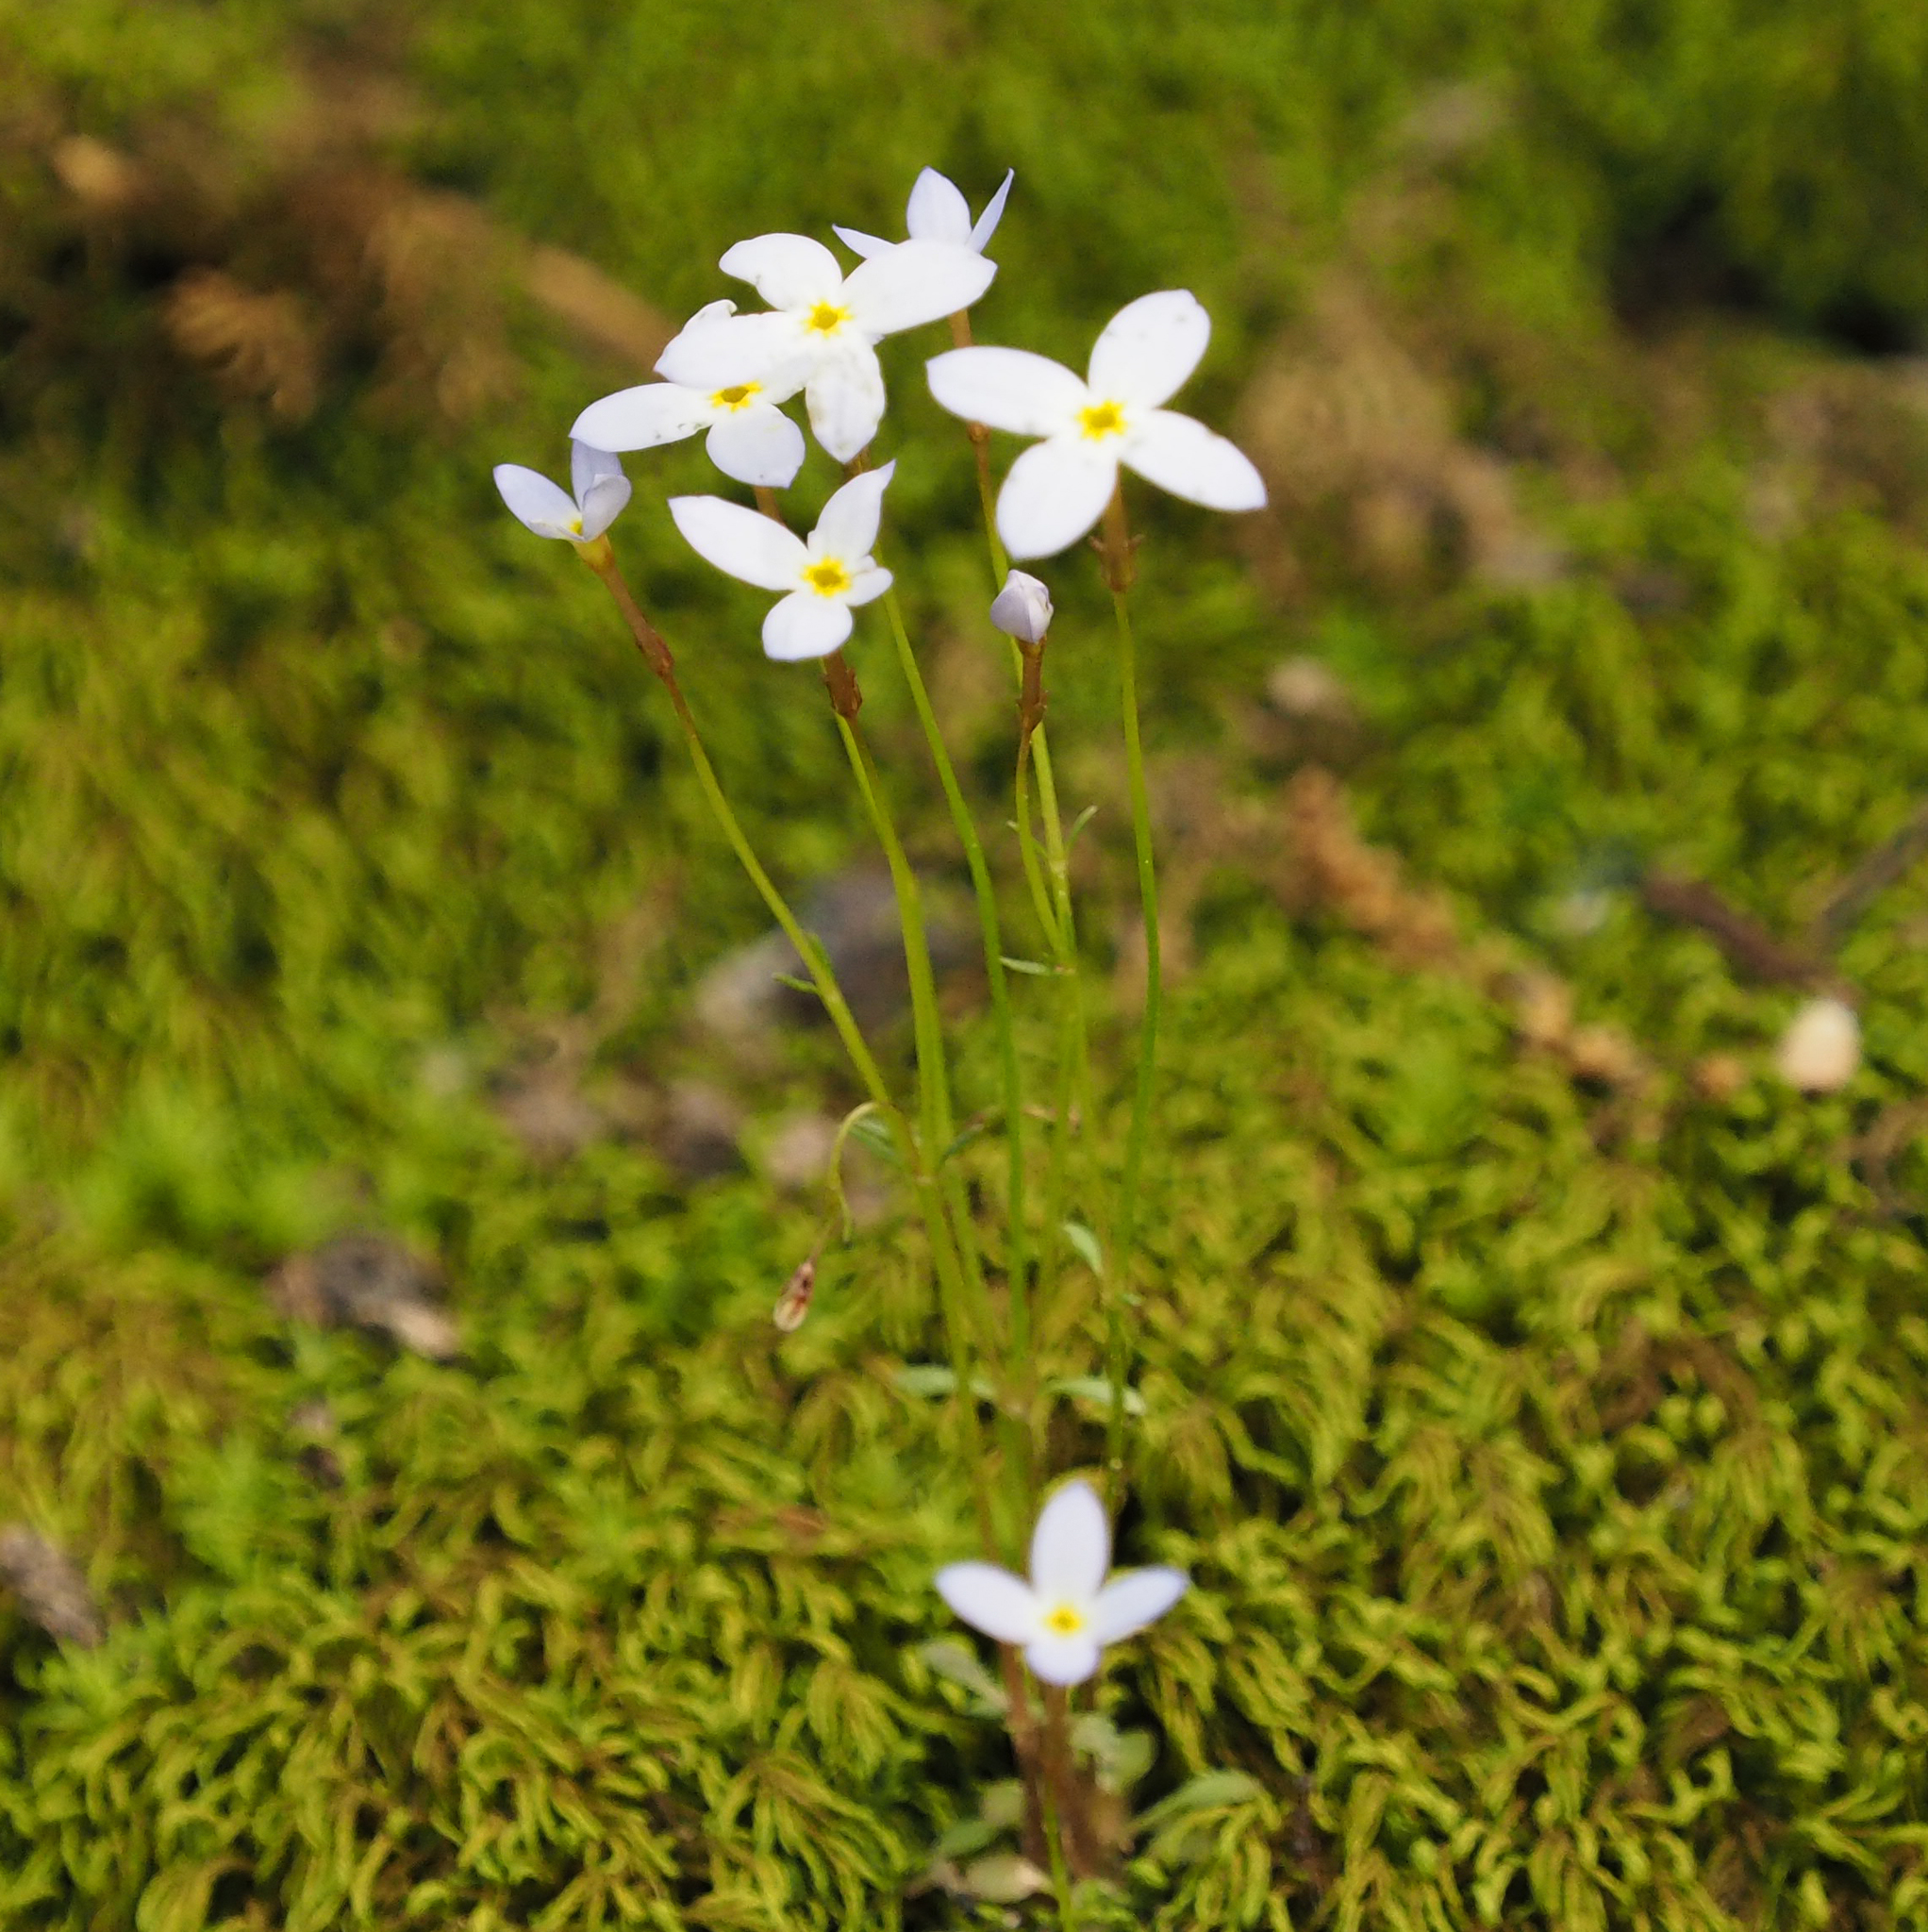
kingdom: Plantae
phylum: Tracheophyta
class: Magnoliopsida
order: Gentianales
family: Rubiaceae
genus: Houstonia
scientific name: Houstonia caerulea
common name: Bluets
